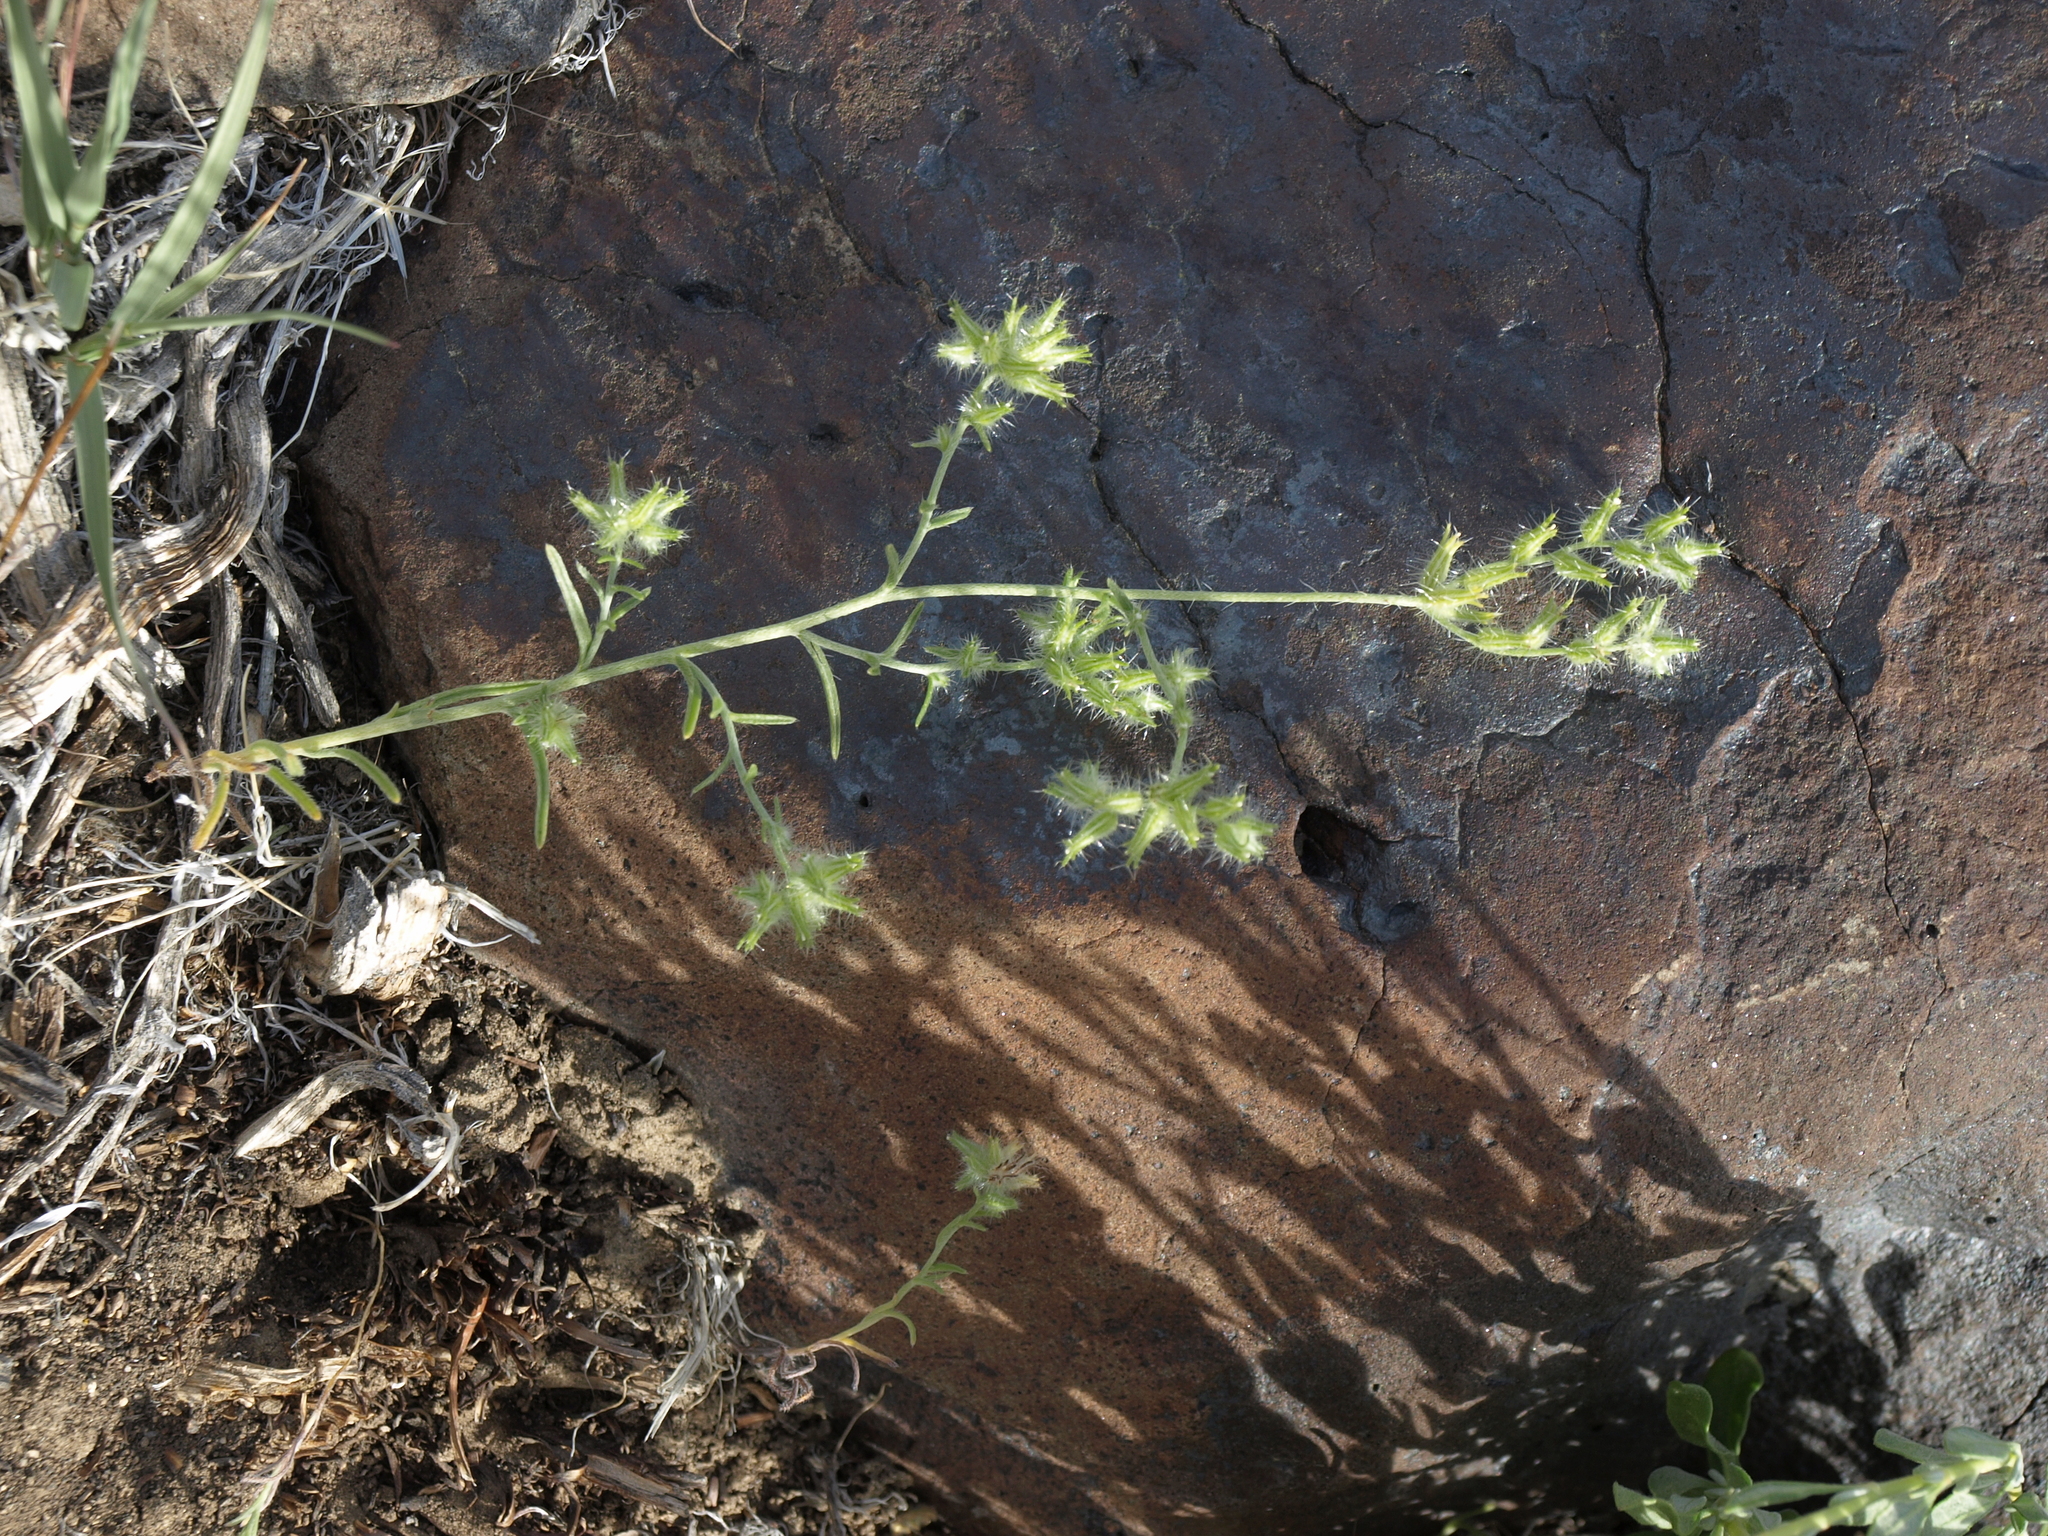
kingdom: Plantae
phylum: Tracheophyta
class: Magnoliopsida
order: Boraginales
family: Boraginaceae
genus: Cryptantha
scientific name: Cryptantha nevadensis
